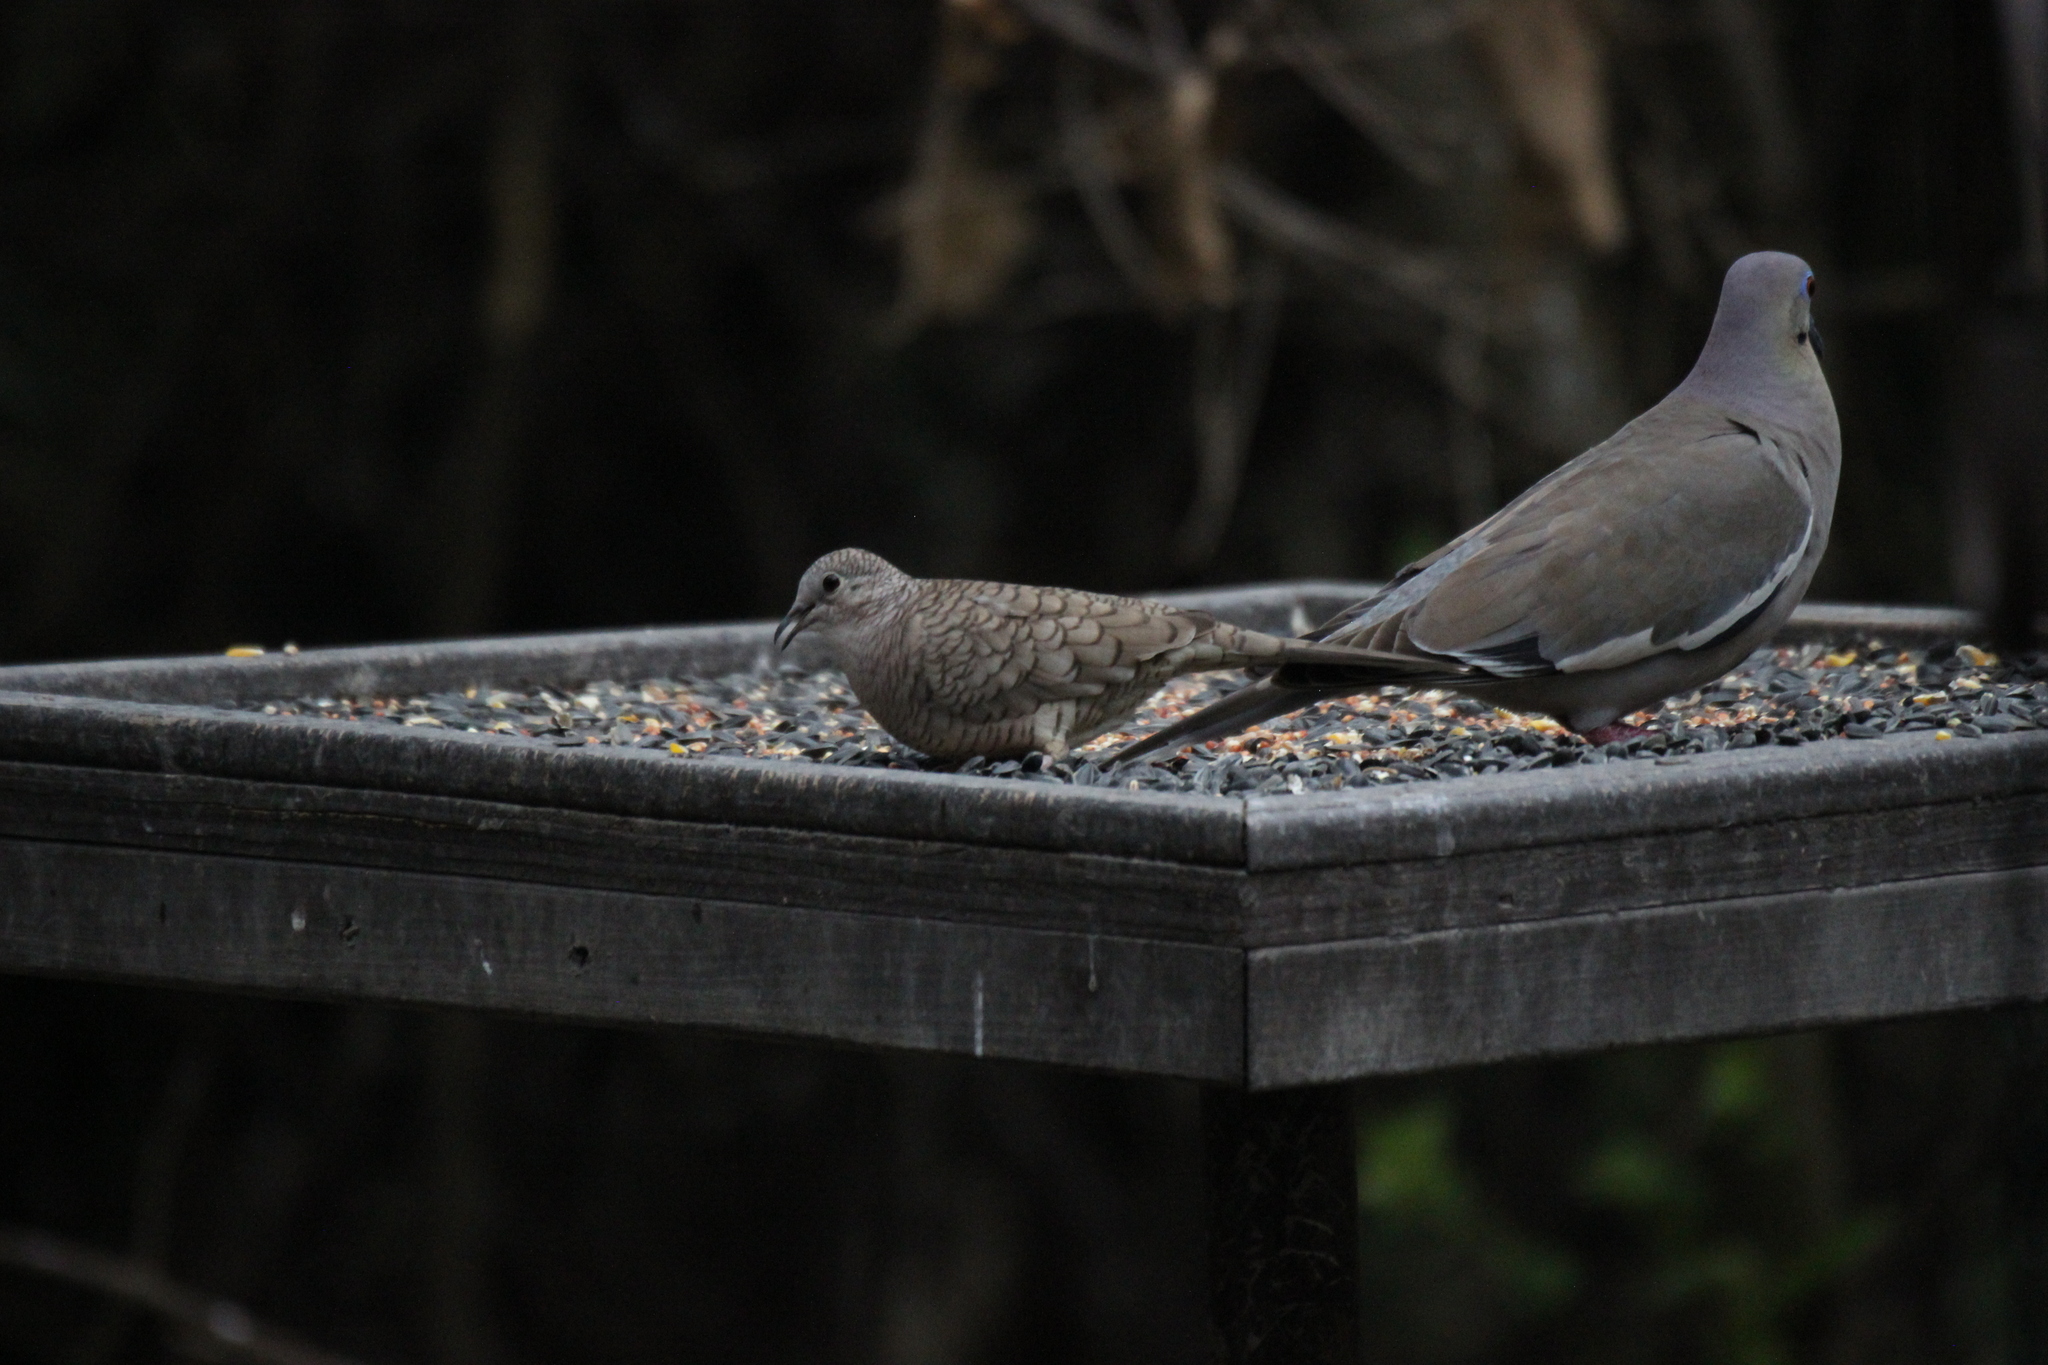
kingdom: Animalia
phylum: Chordata
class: Aves
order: Columbiformes
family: Columbidae
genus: Columbina
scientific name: Columbina inca
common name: Inca dove
